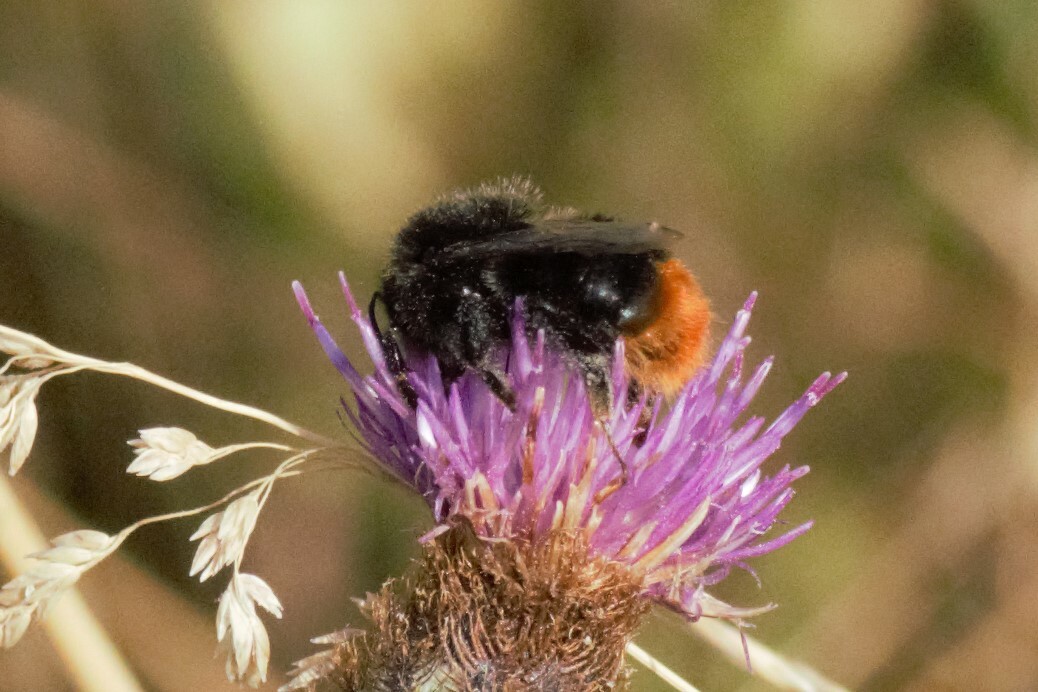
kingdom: Animalia
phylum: Arthropoda
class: Insecta
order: Hymenoptera
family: Apidae
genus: Bombus
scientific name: Bombus lapidarius
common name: Large red-tailed humble-bee
